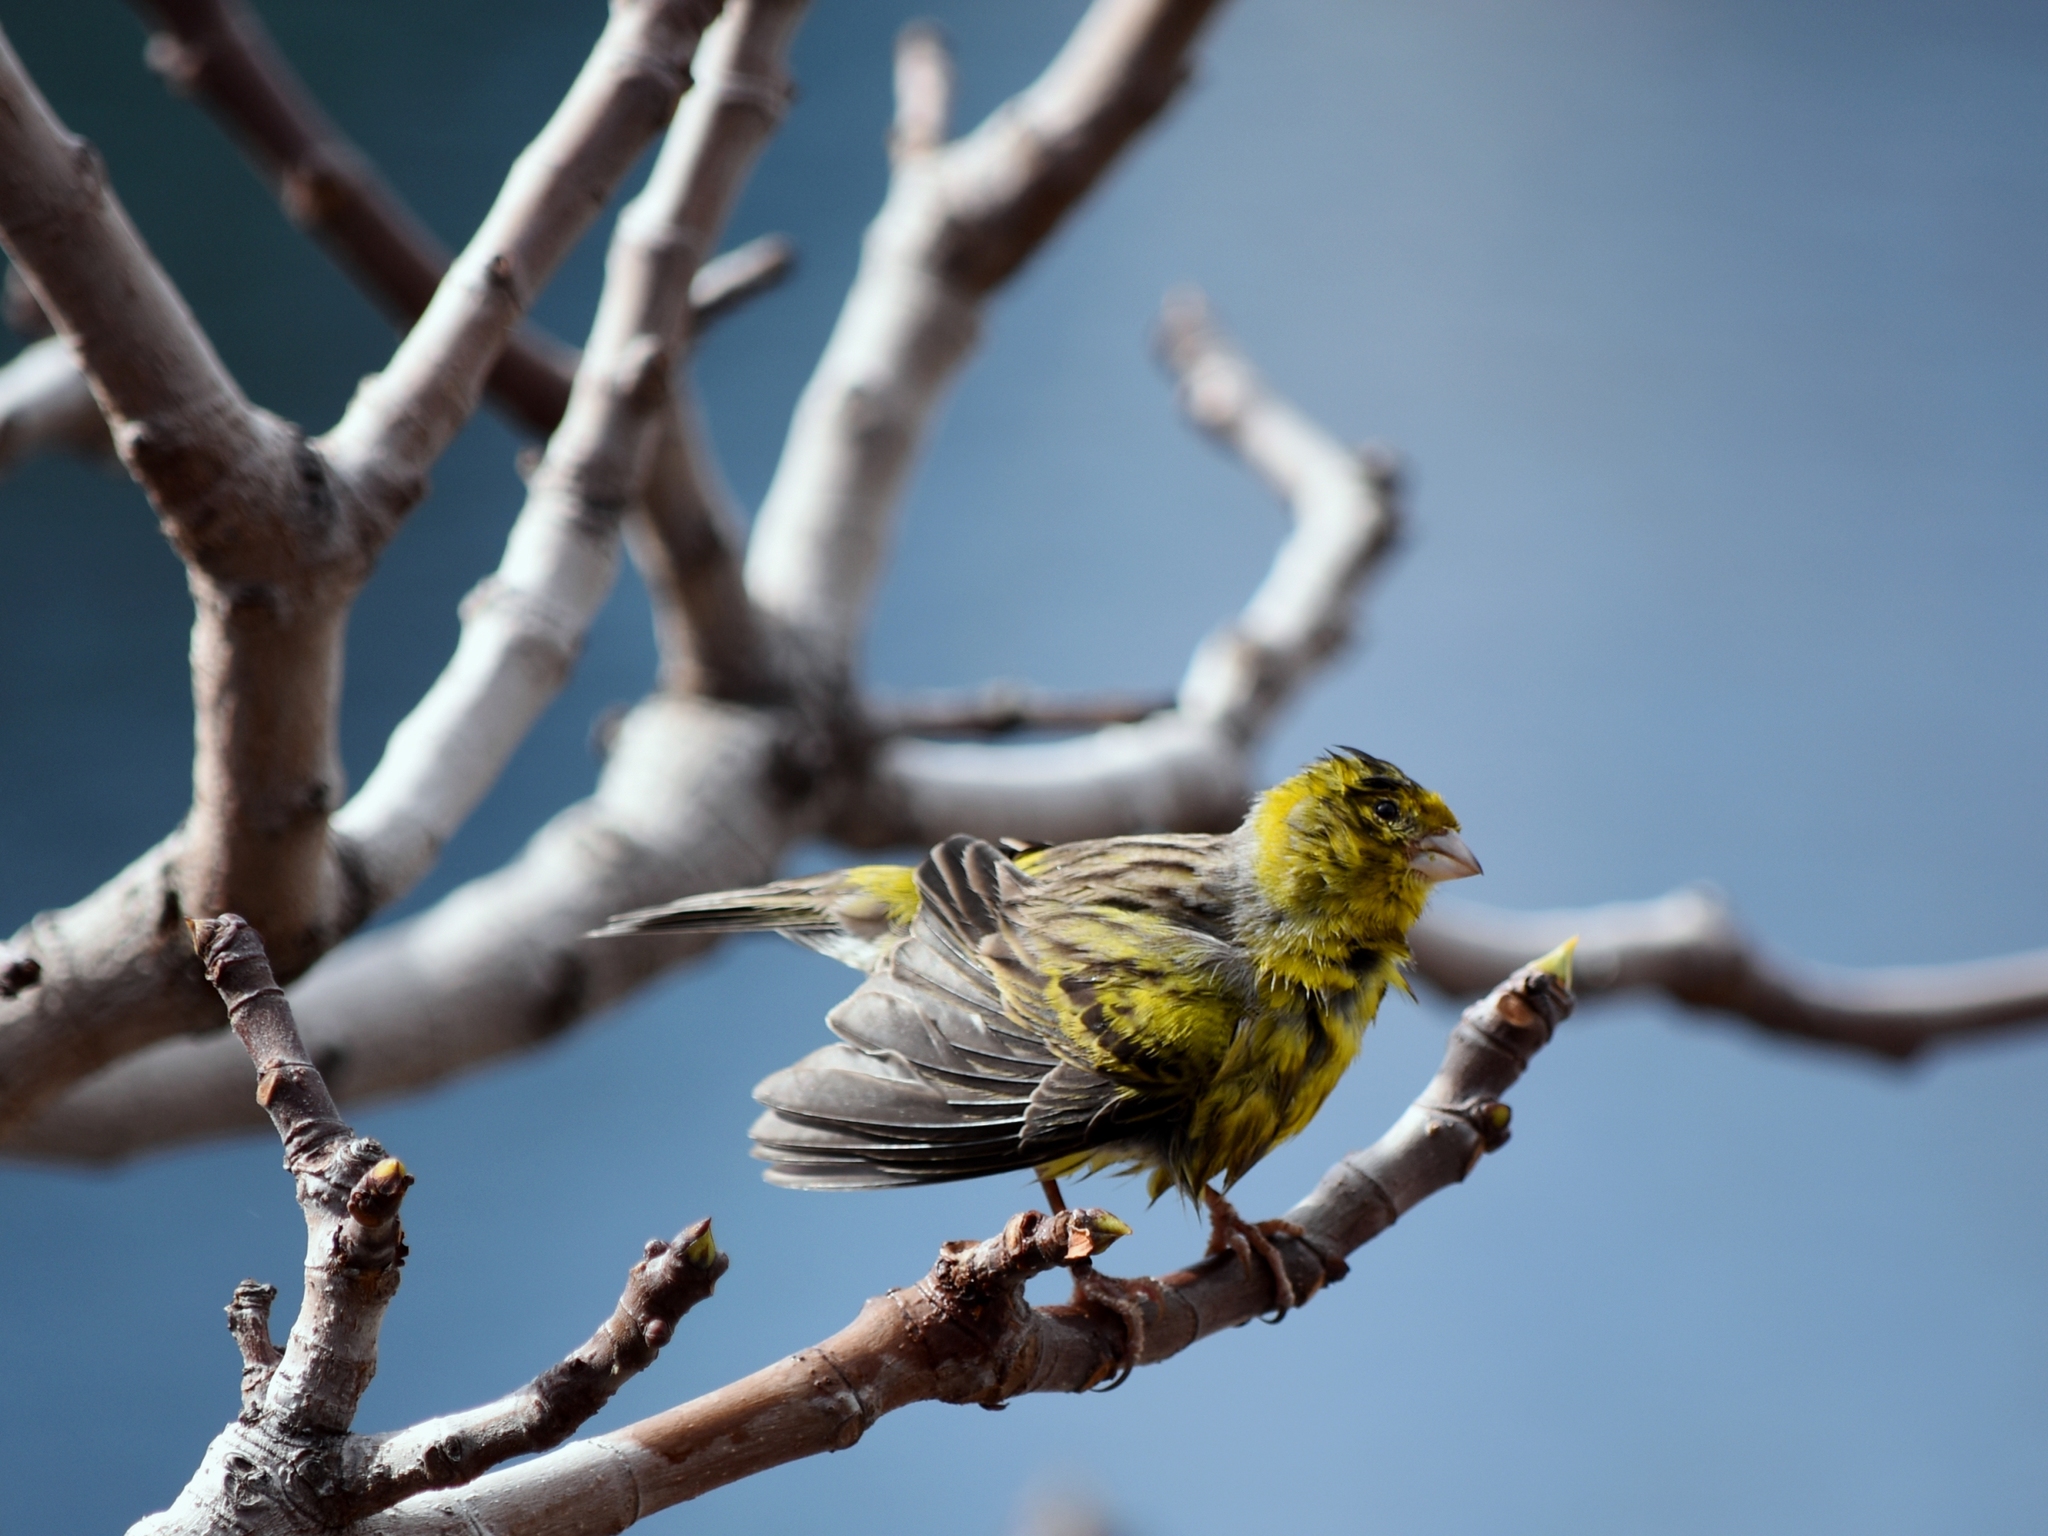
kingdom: Animalia
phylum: Chordata
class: Aves
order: Passeriformes
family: Fringillidae
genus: Serinus
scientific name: Serinus canaria
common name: Atlantic canary
